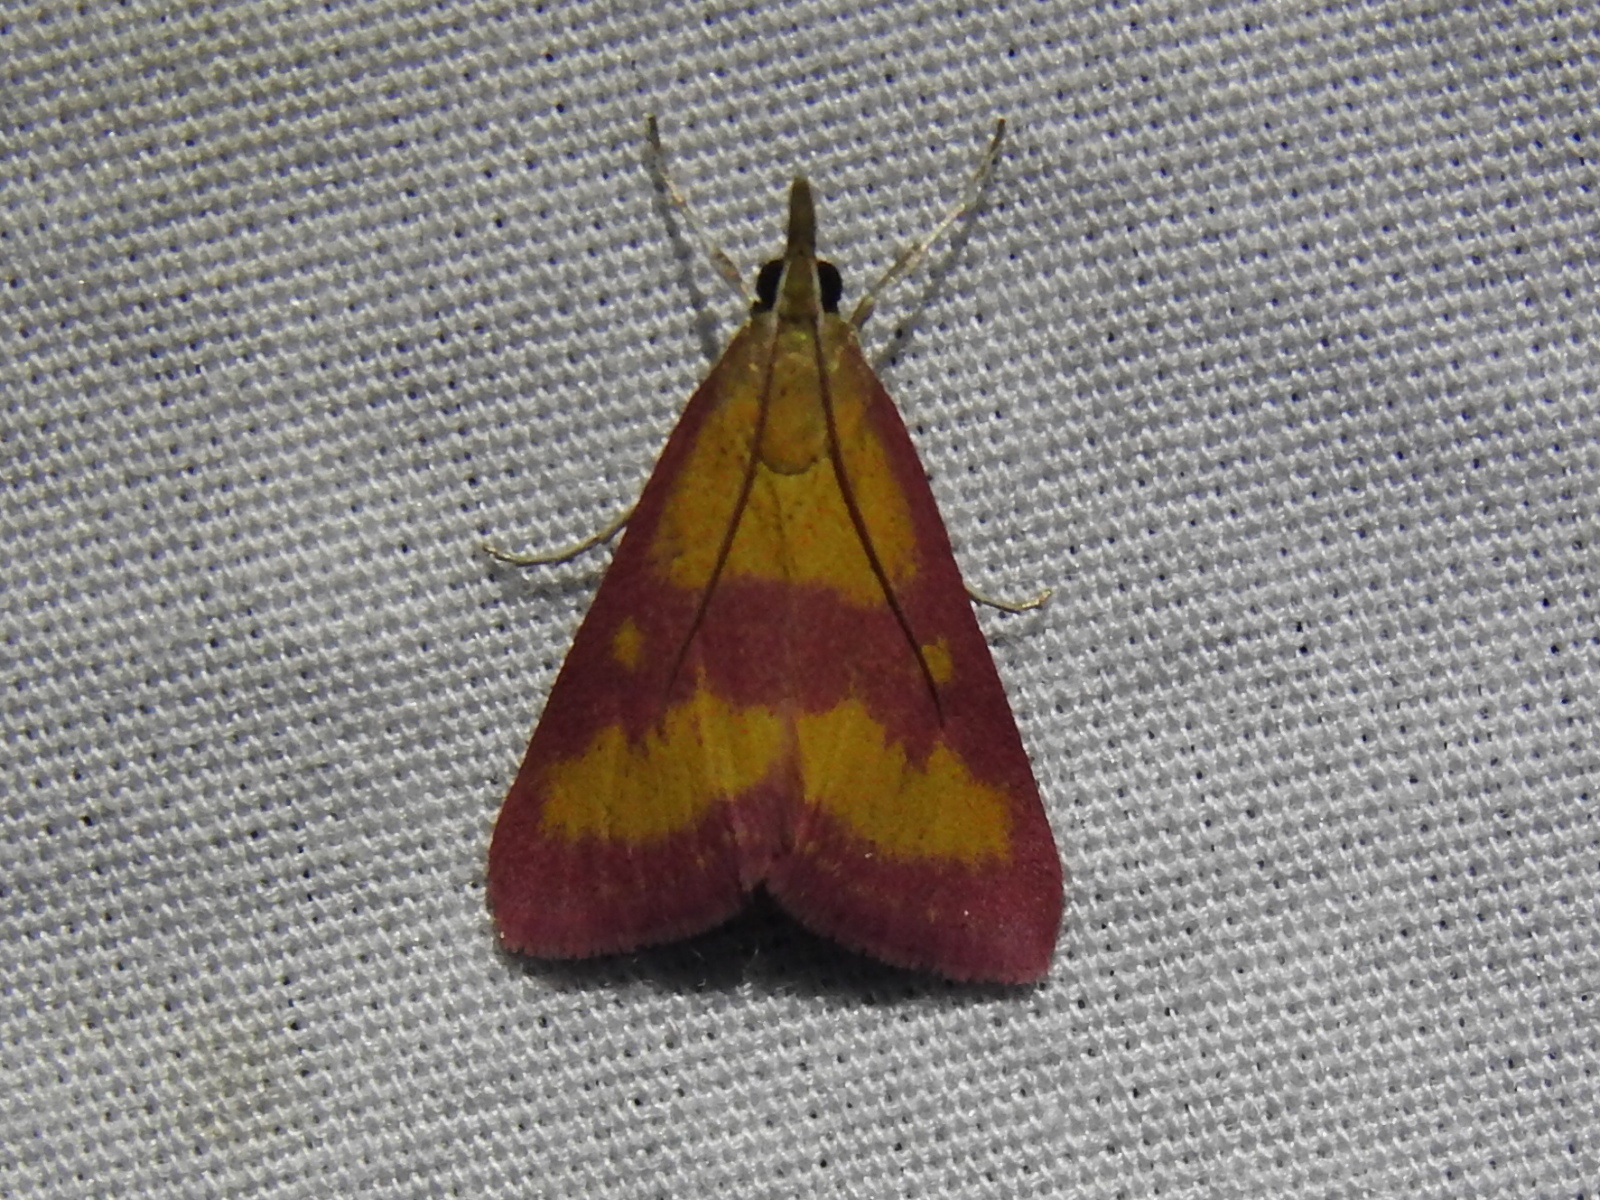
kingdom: Animalia
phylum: Arthropoda
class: Insecta
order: Lepidoptera
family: Crambidae
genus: Pyrausta
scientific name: Pyrausta laticlavia
